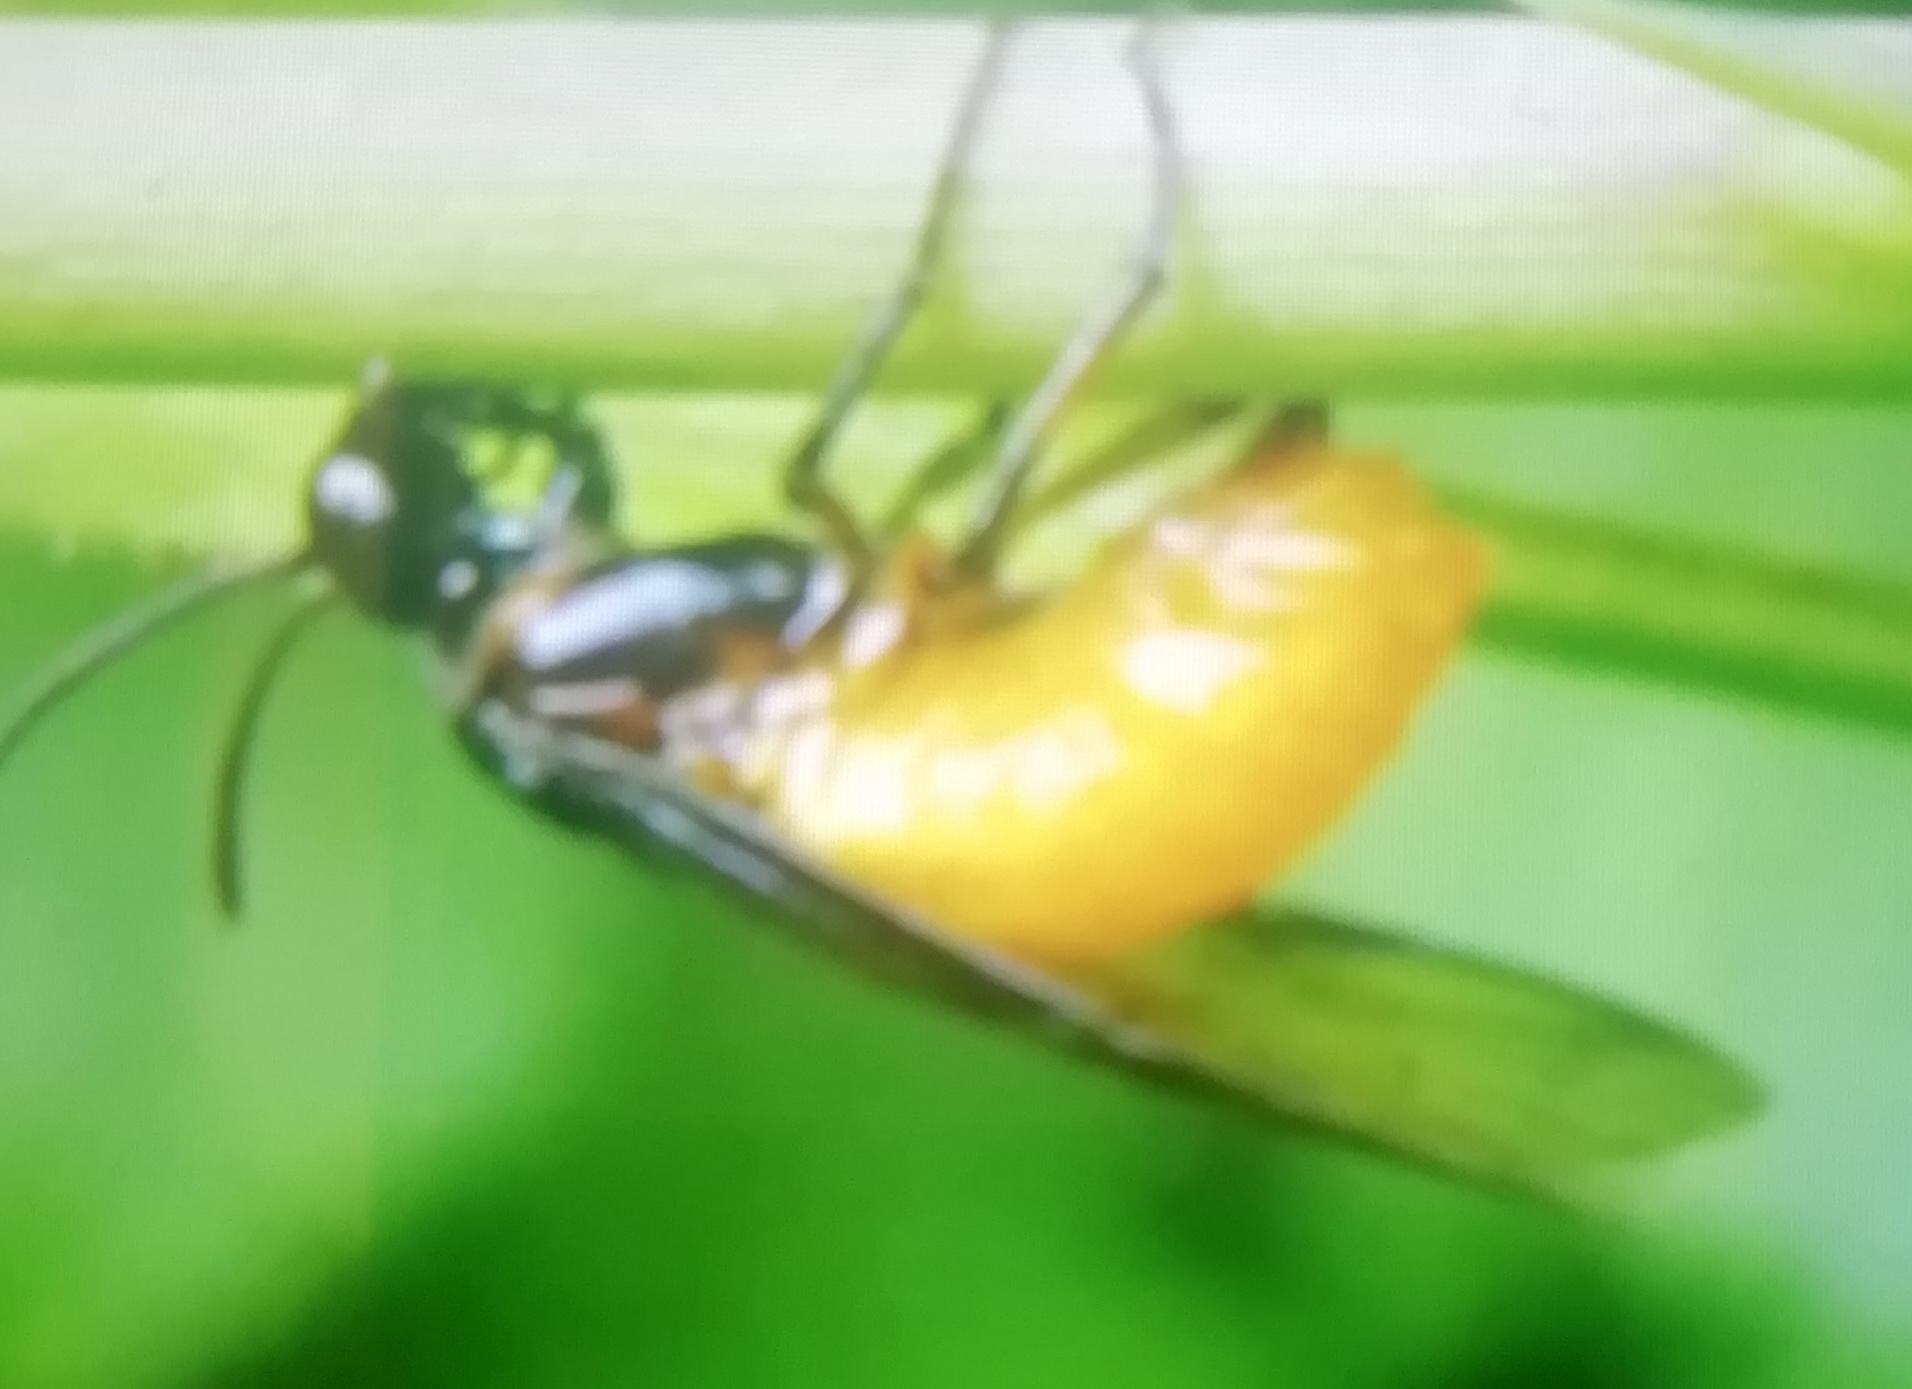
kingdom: Animalia
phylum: Arthropoda
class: Insecta
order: Hymenoptera
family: Argidae
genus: Arge
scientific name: Arge pagana
